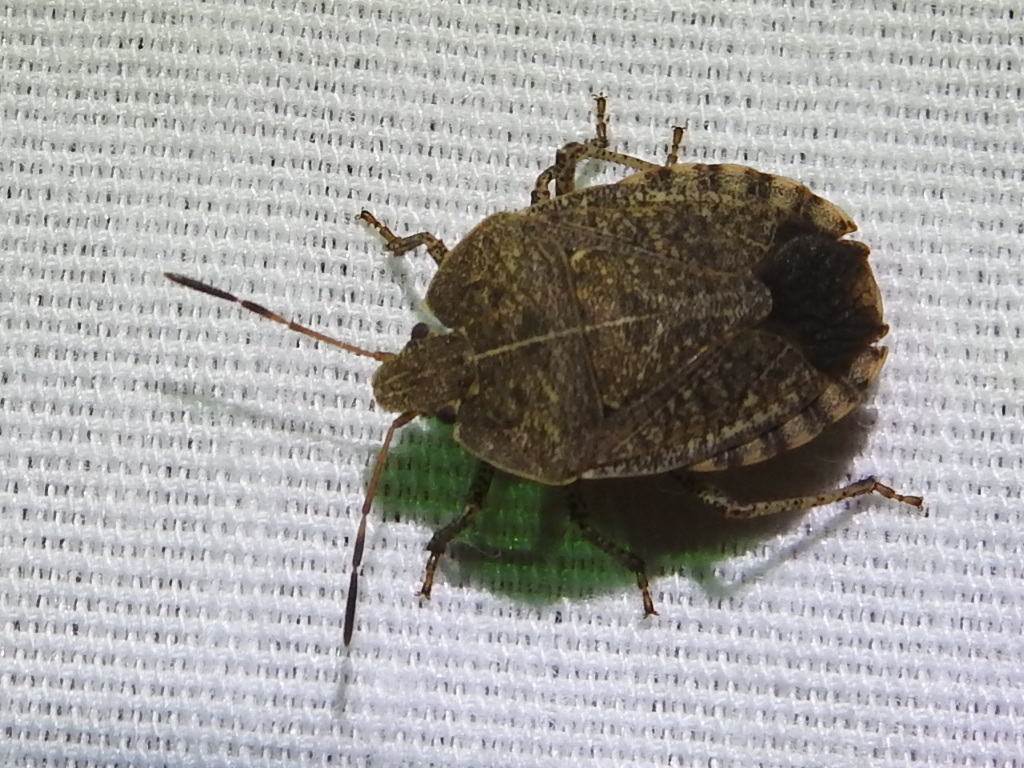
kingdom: Animalia
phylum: Arthropoda
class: Insecta
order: Hemiptera
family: Pentatomidae
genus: Menecles
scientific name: Menecles insertus
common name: Elf shoe stink bug
